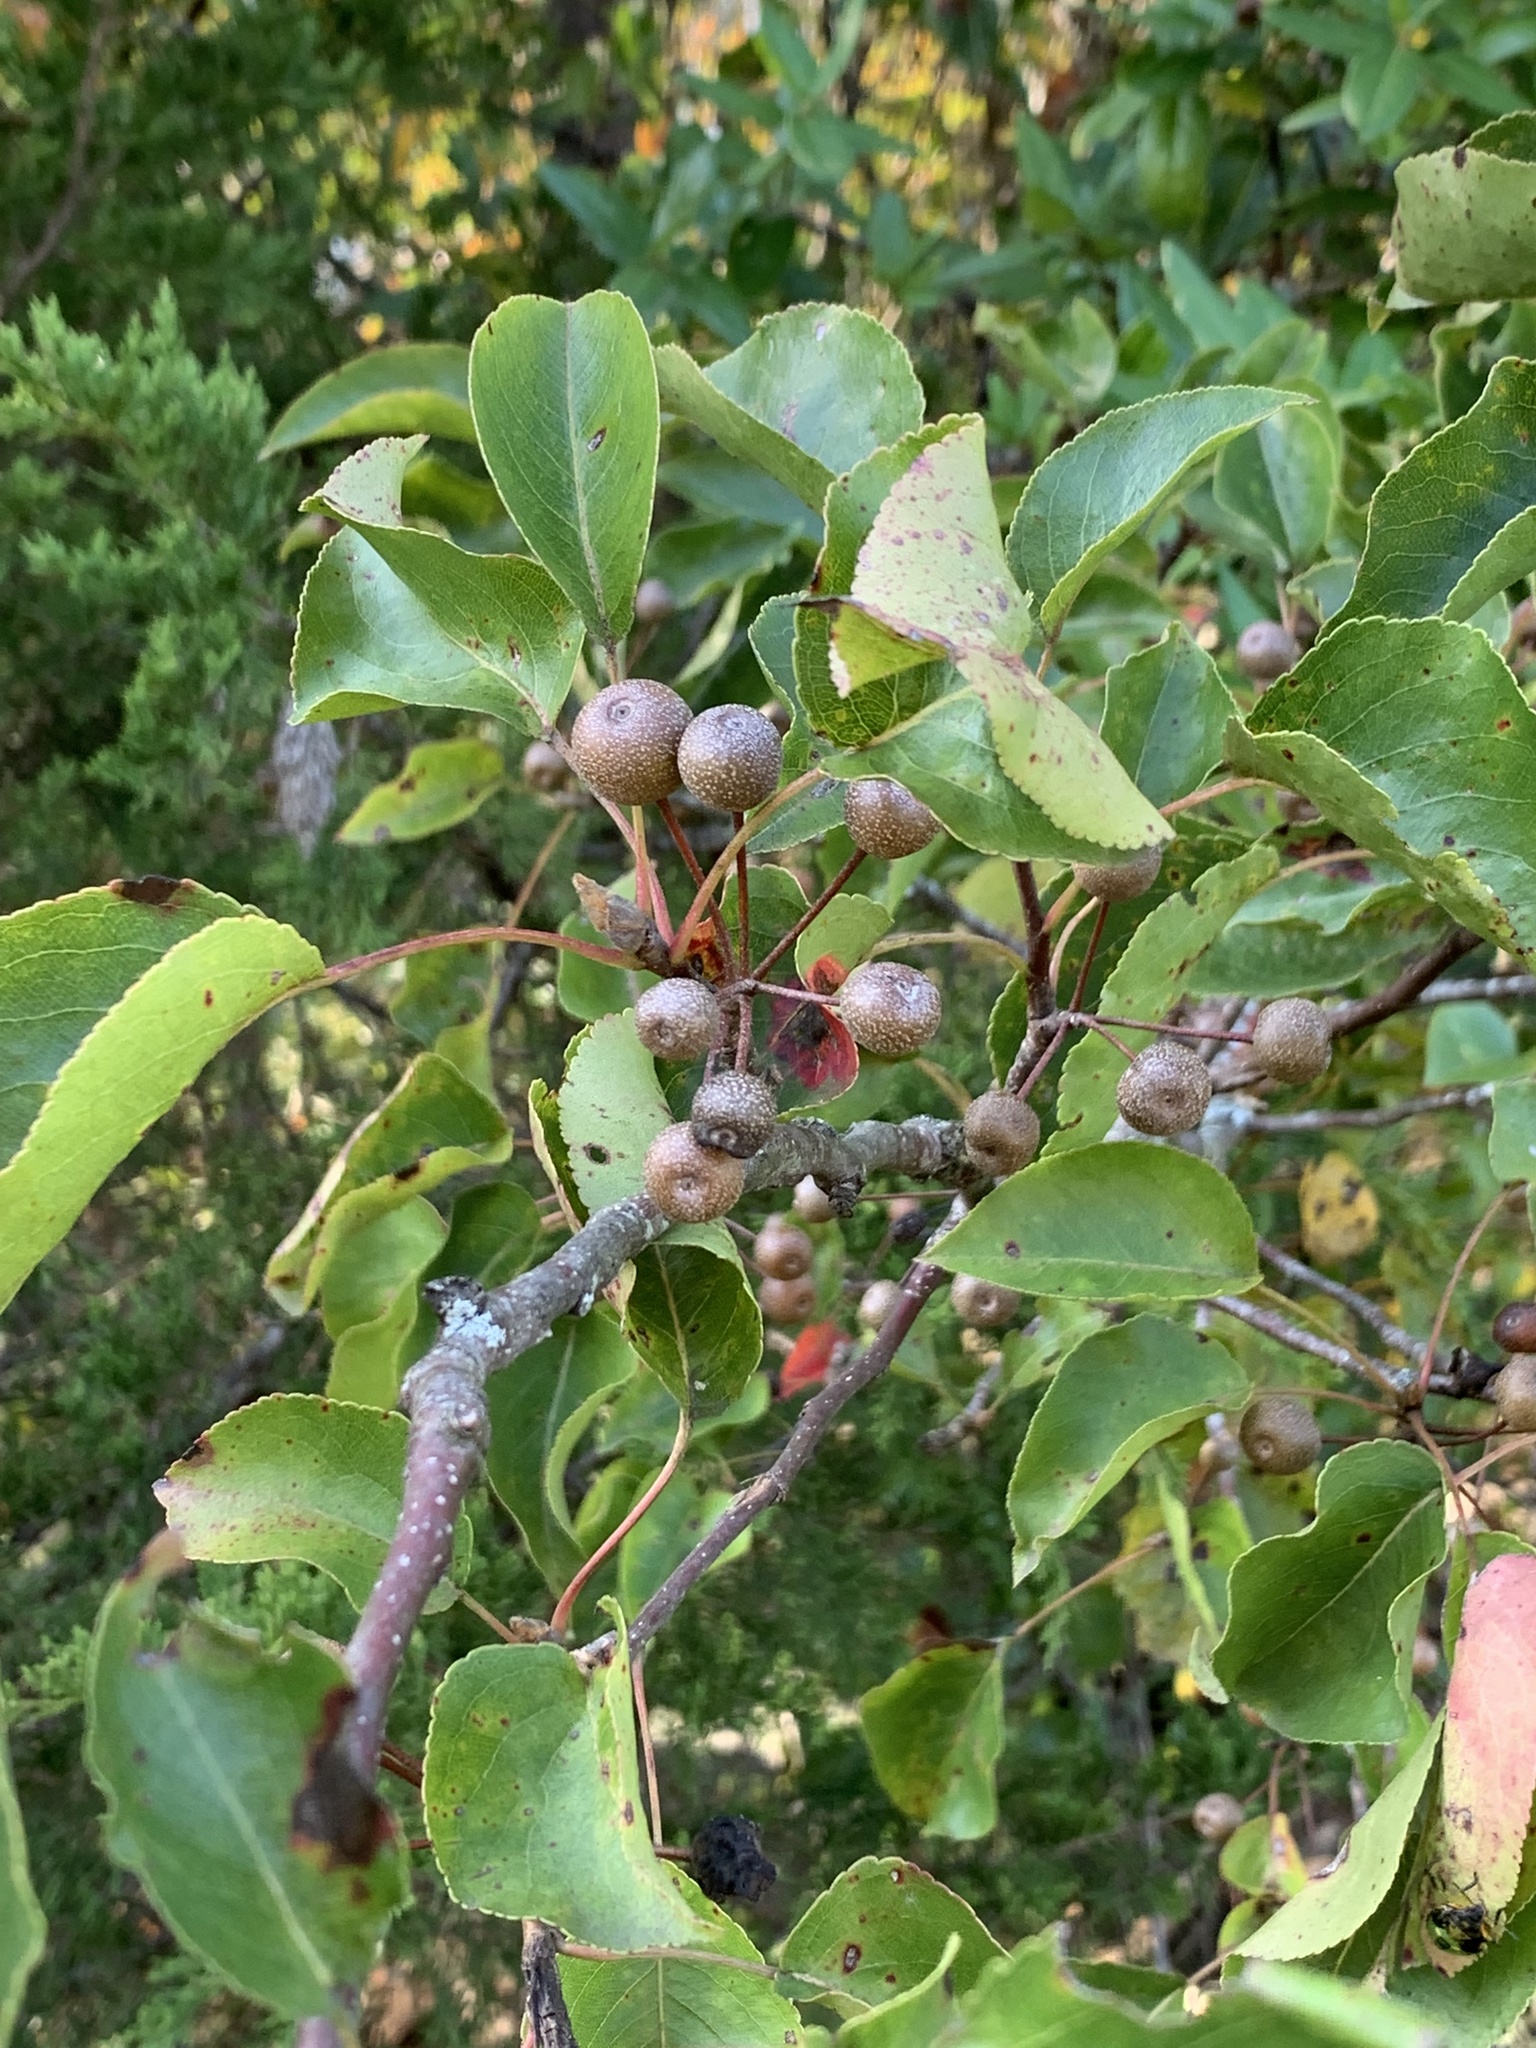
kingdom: Plantae
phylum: Tracheophyta
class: Magnoliopsida
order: Rosales
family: Rosaceae
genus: Pyrus
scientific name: Pyrus calleryana
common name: Callery pear
